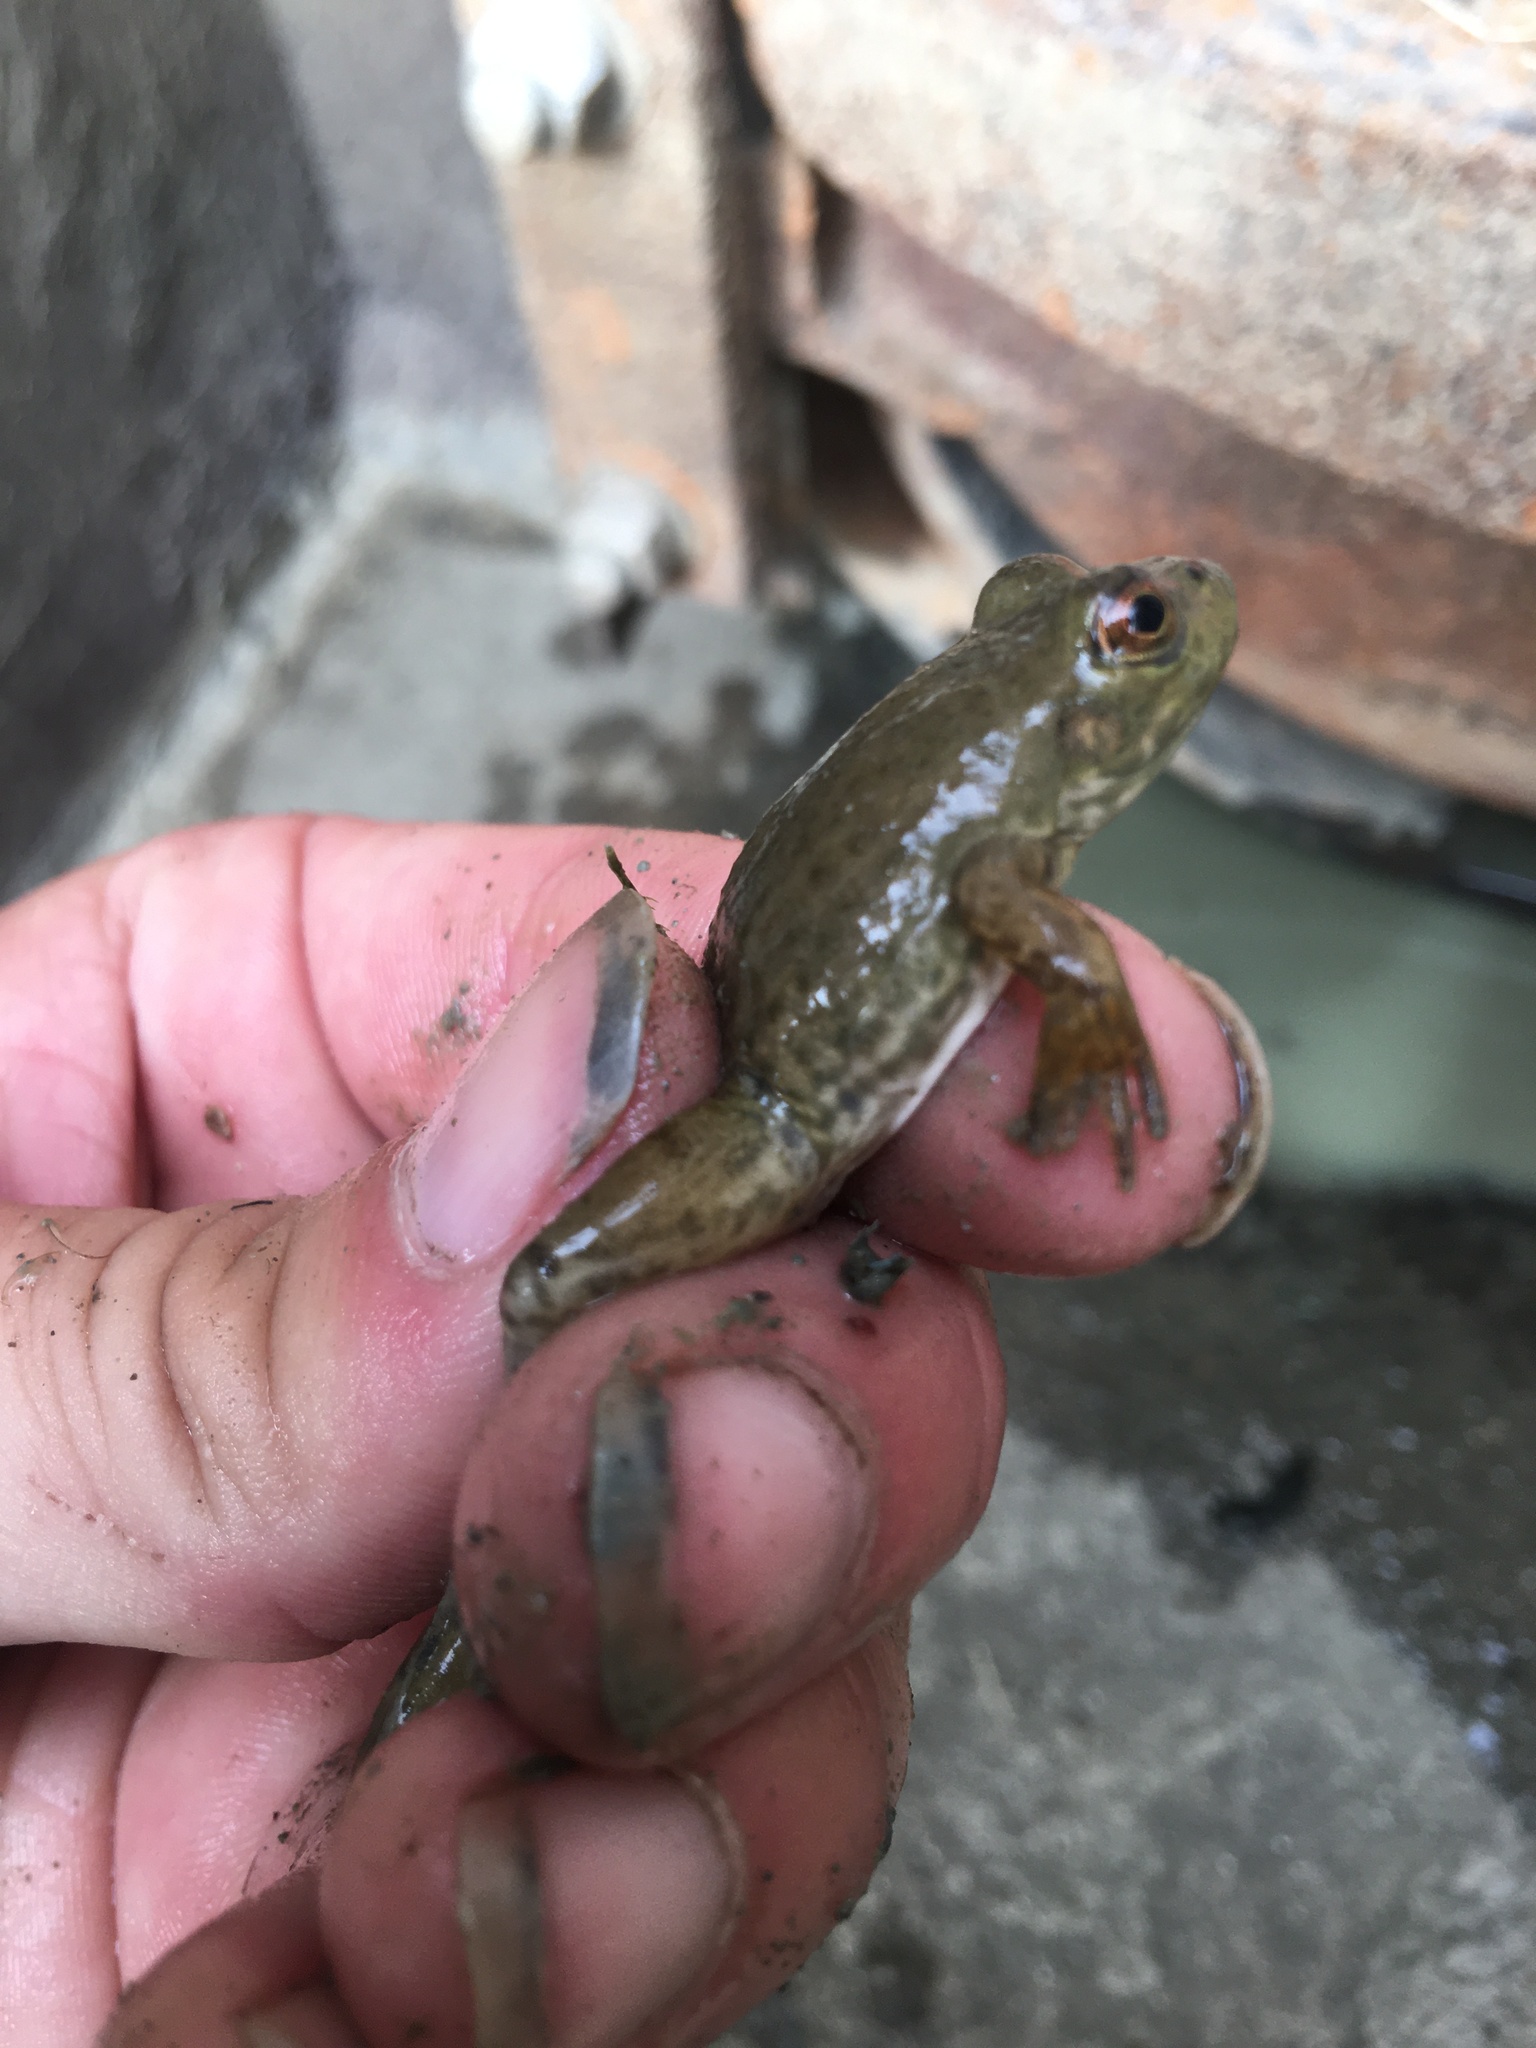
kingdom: Animalia
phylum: Chordata
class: Amphibia
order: Anura
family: Ranidae
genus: Lithobates
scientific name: Lithobates catesbeianus
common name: American bullfrog
